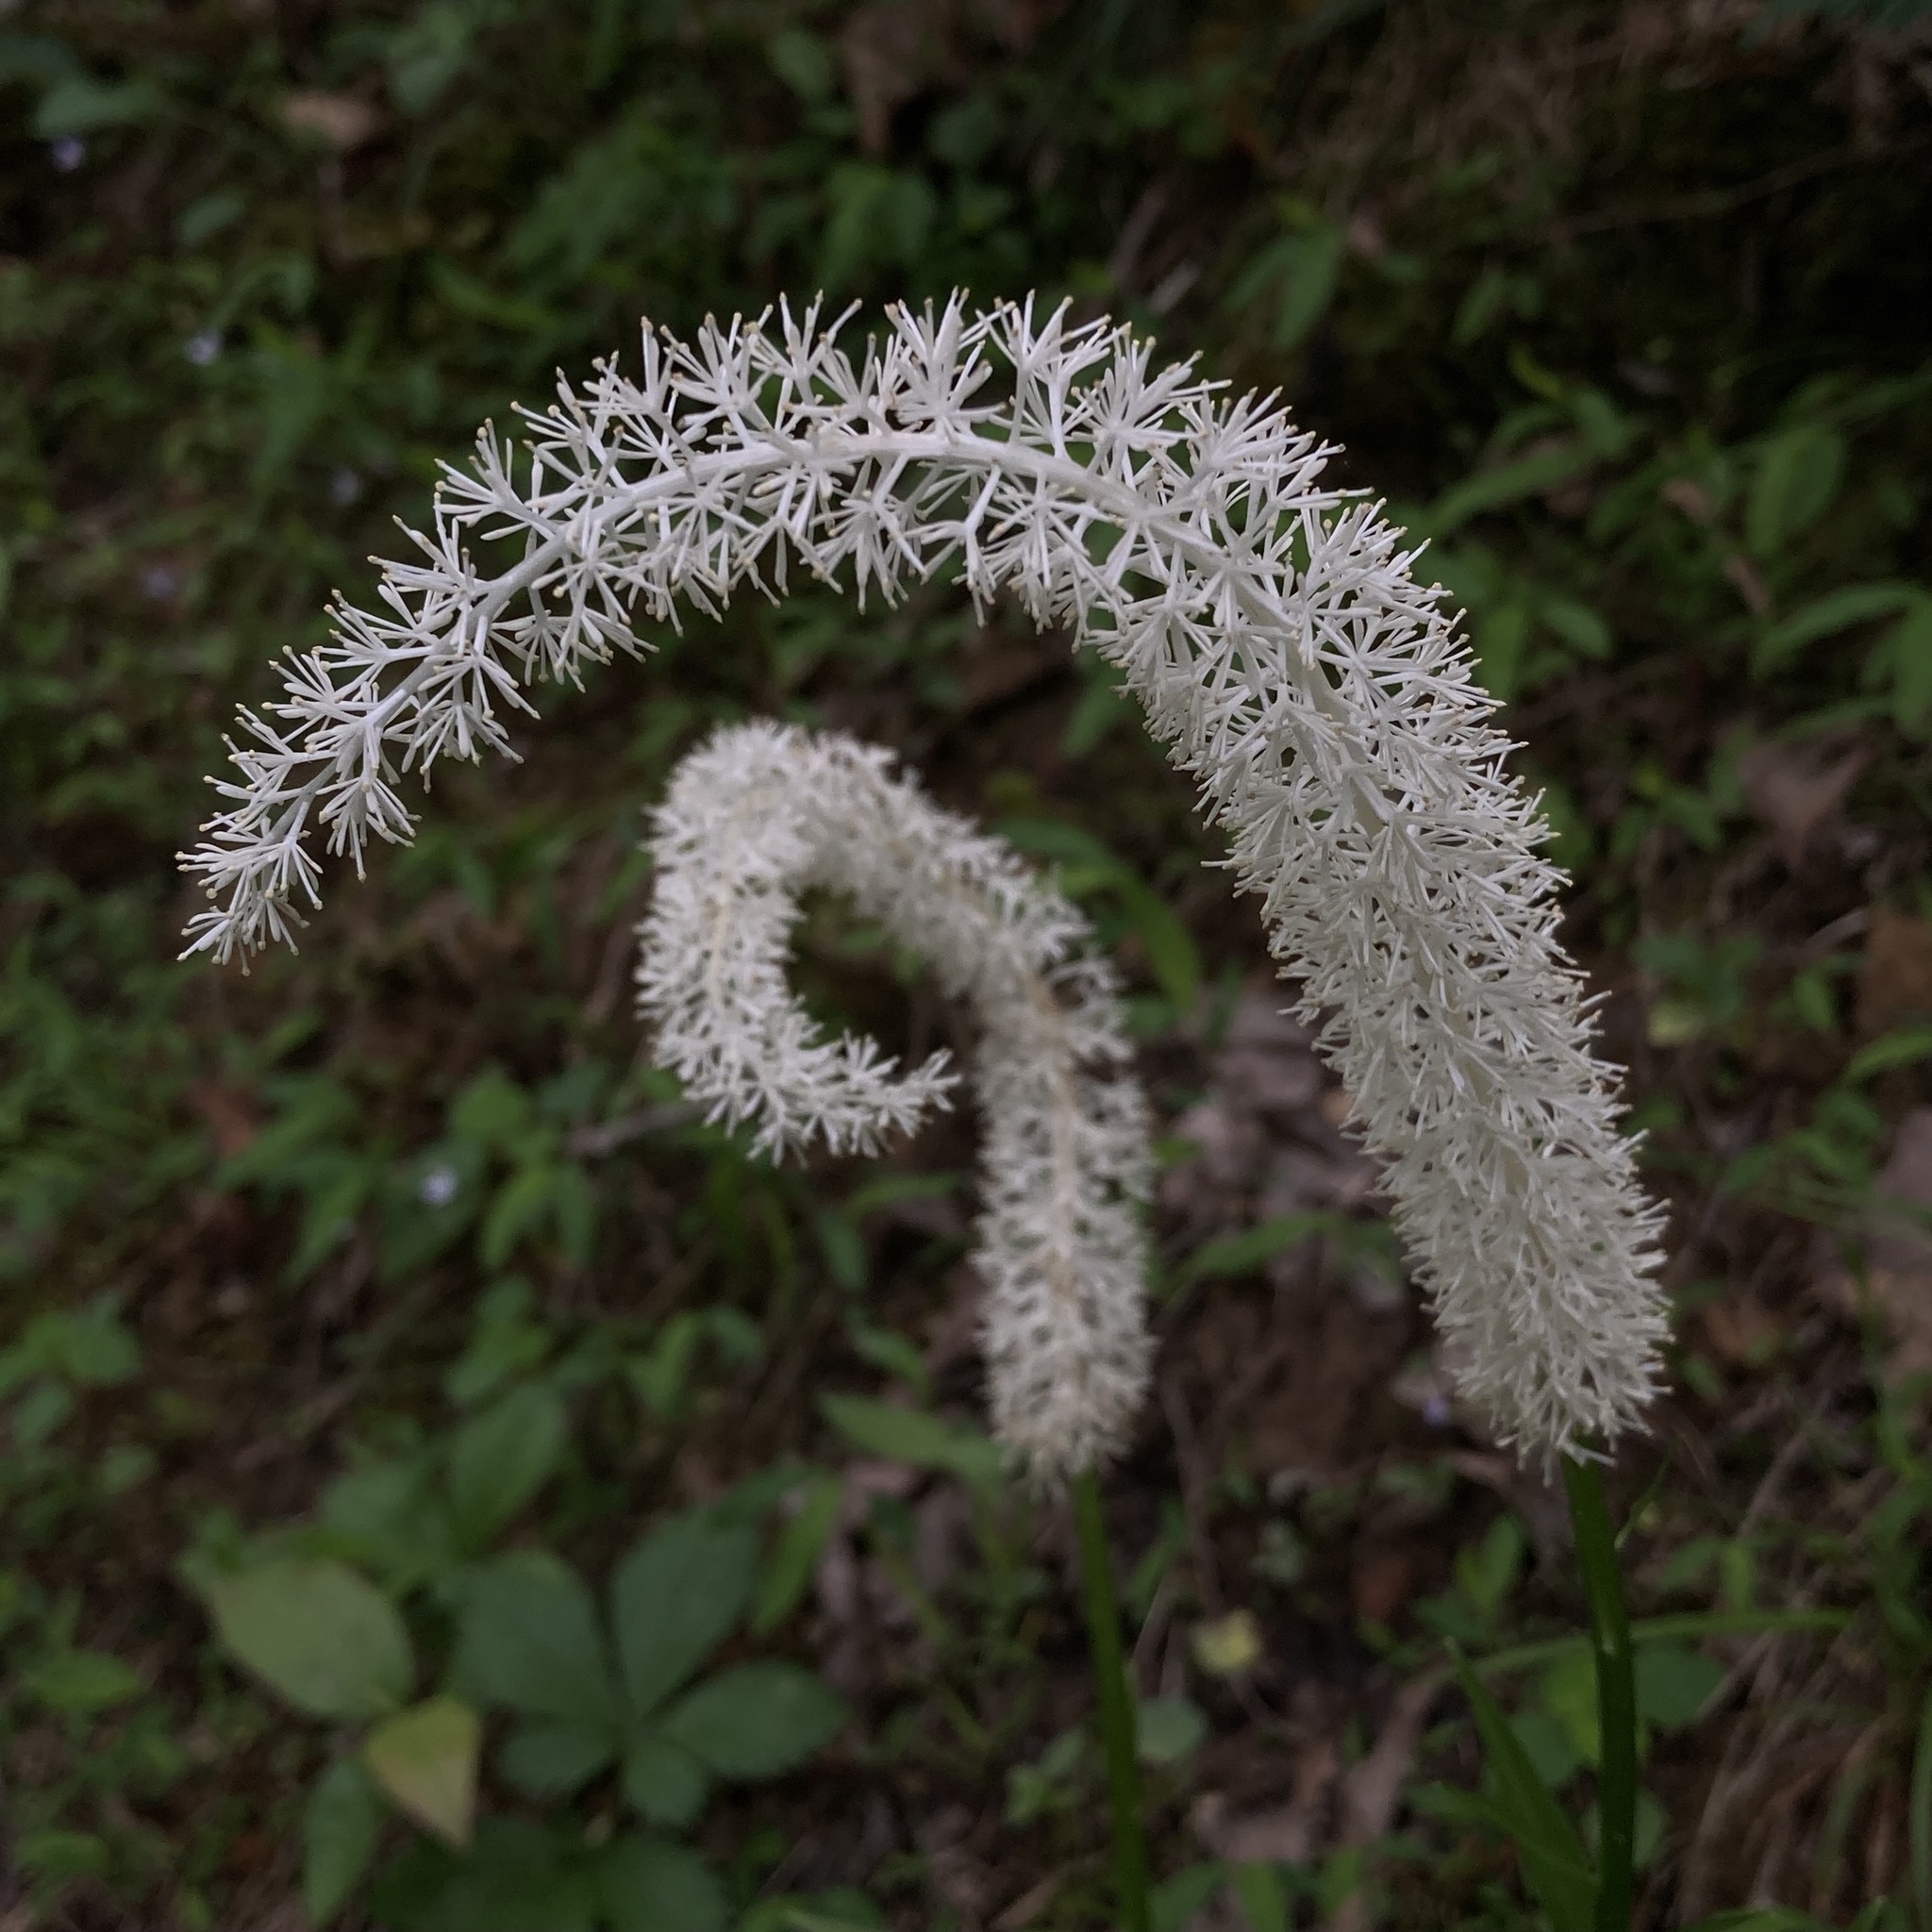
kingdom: Plantae
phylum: Tracheophyta
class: Liliopsida
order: Liliales
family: Melanthiaceae
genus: Chamaelirium
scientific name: Chamaelirium luteum
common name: Fairy-wand
